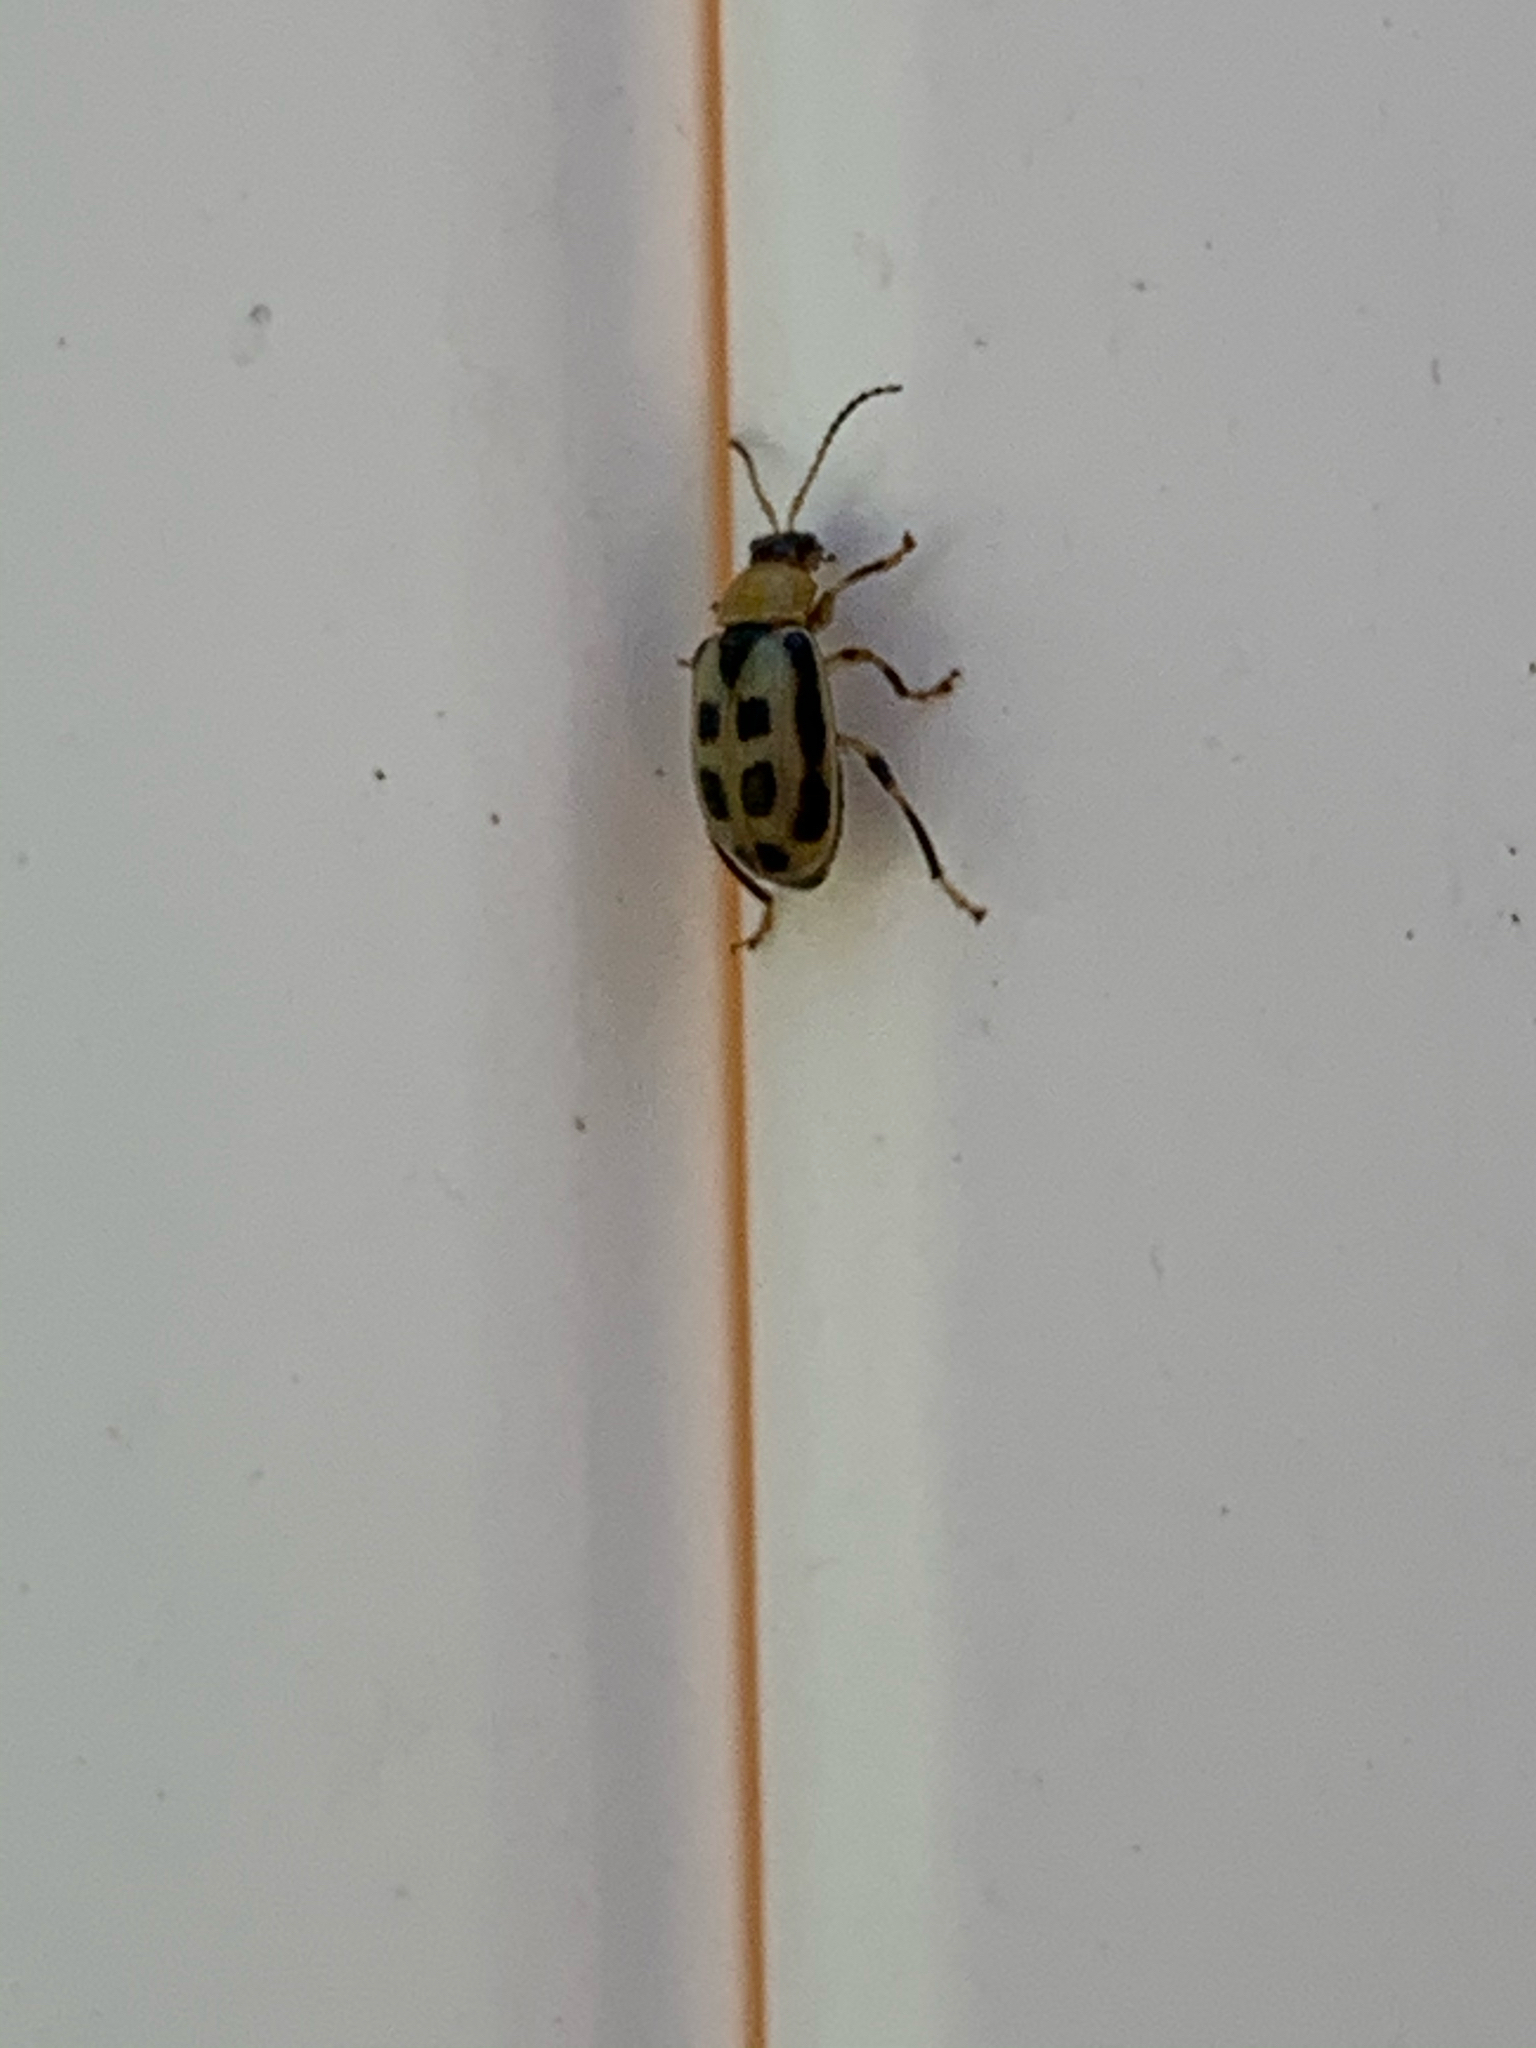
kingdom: Animalia
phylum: Arthropoda
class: Insecta
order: Coleoptera
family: Chrysomelidae
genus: Cerotoma
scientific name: Cerotoma trifurcata
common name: Bean leaf beetle
